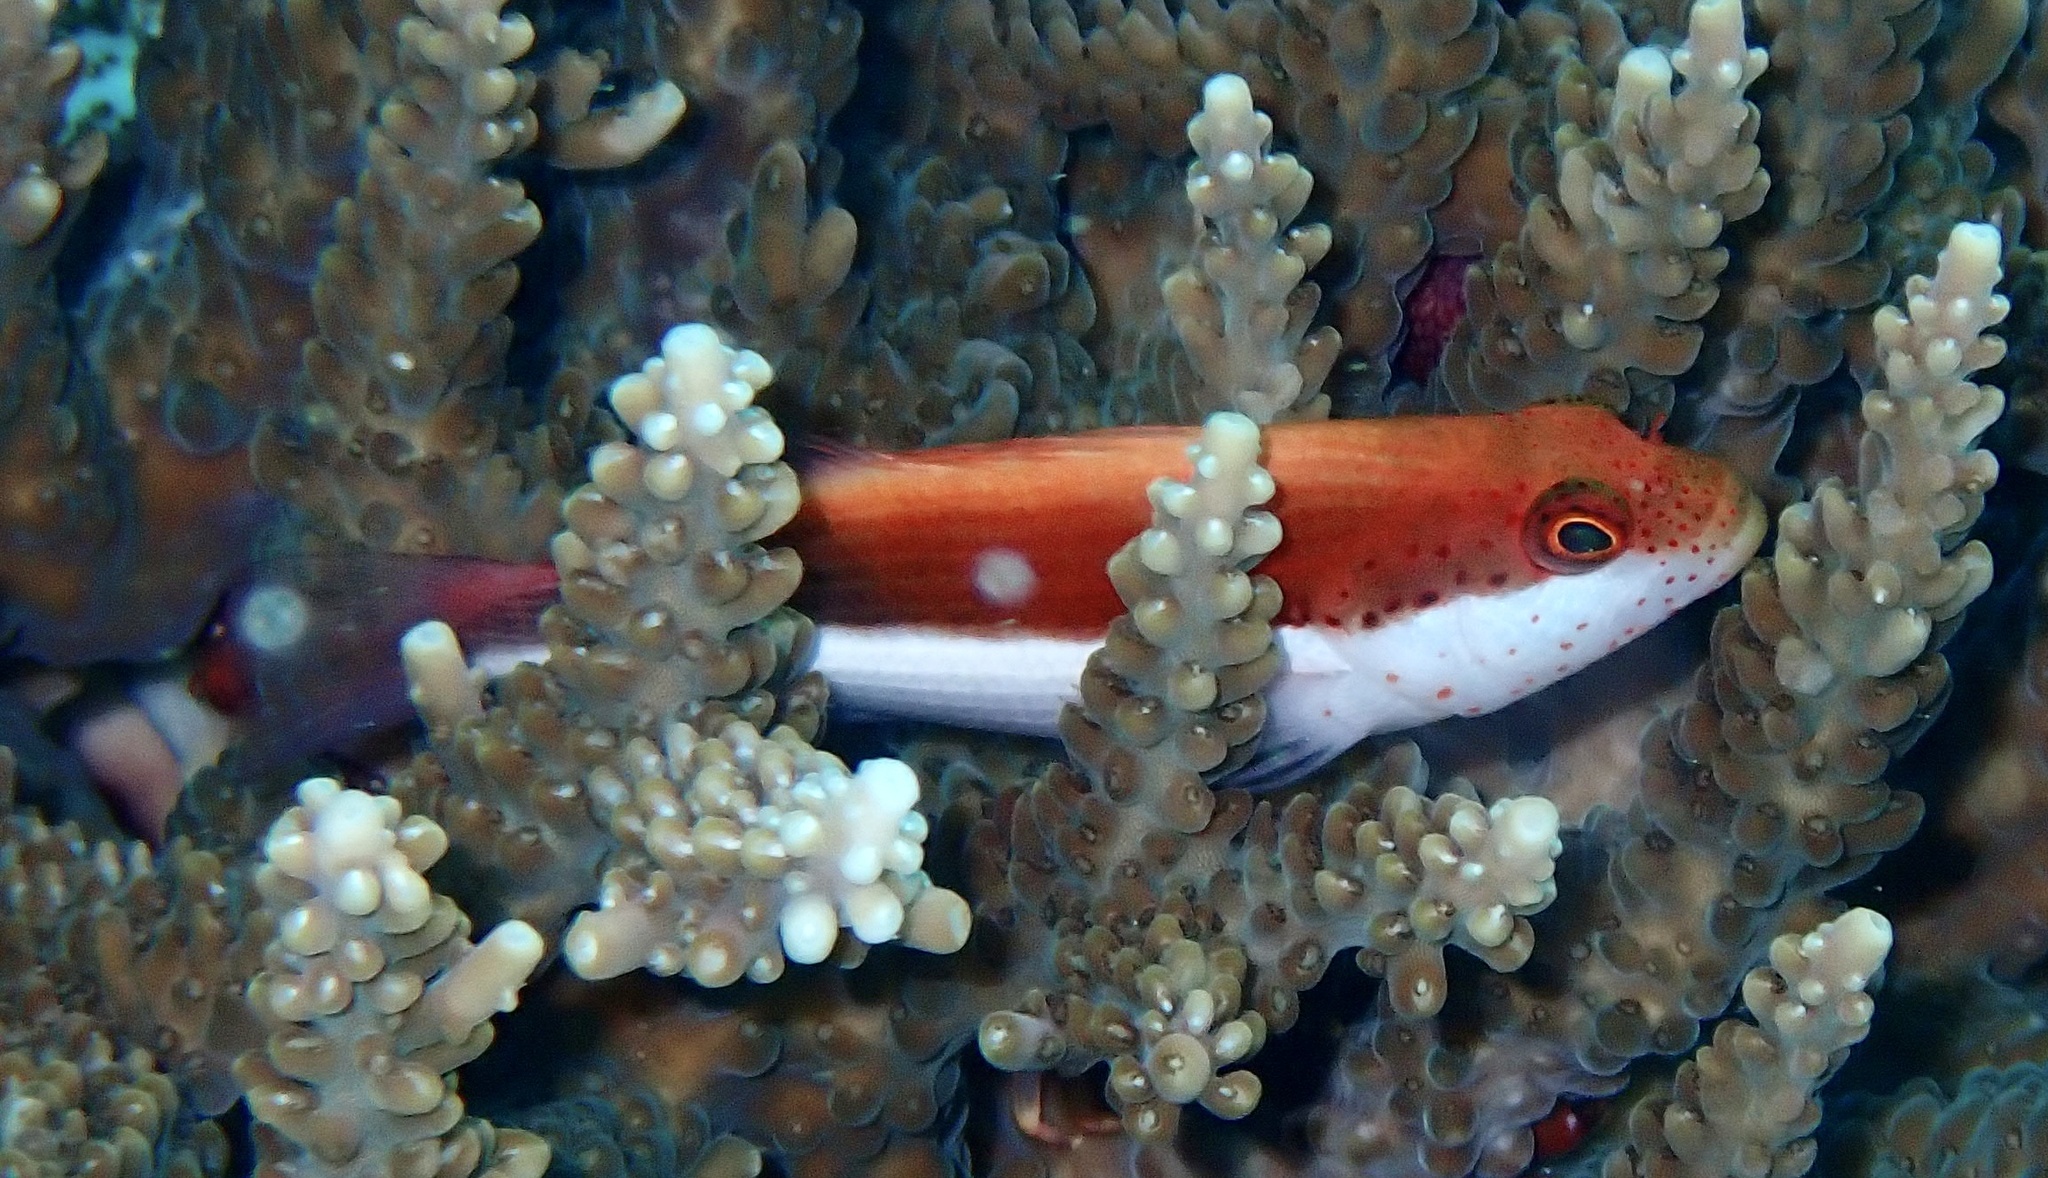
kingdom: Animalia
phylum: Chordata
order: Perciformes
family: Cirrhitidae
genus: Paracirrhites
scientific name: Paracirrhites forsteri
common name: Freckled hawkfish
